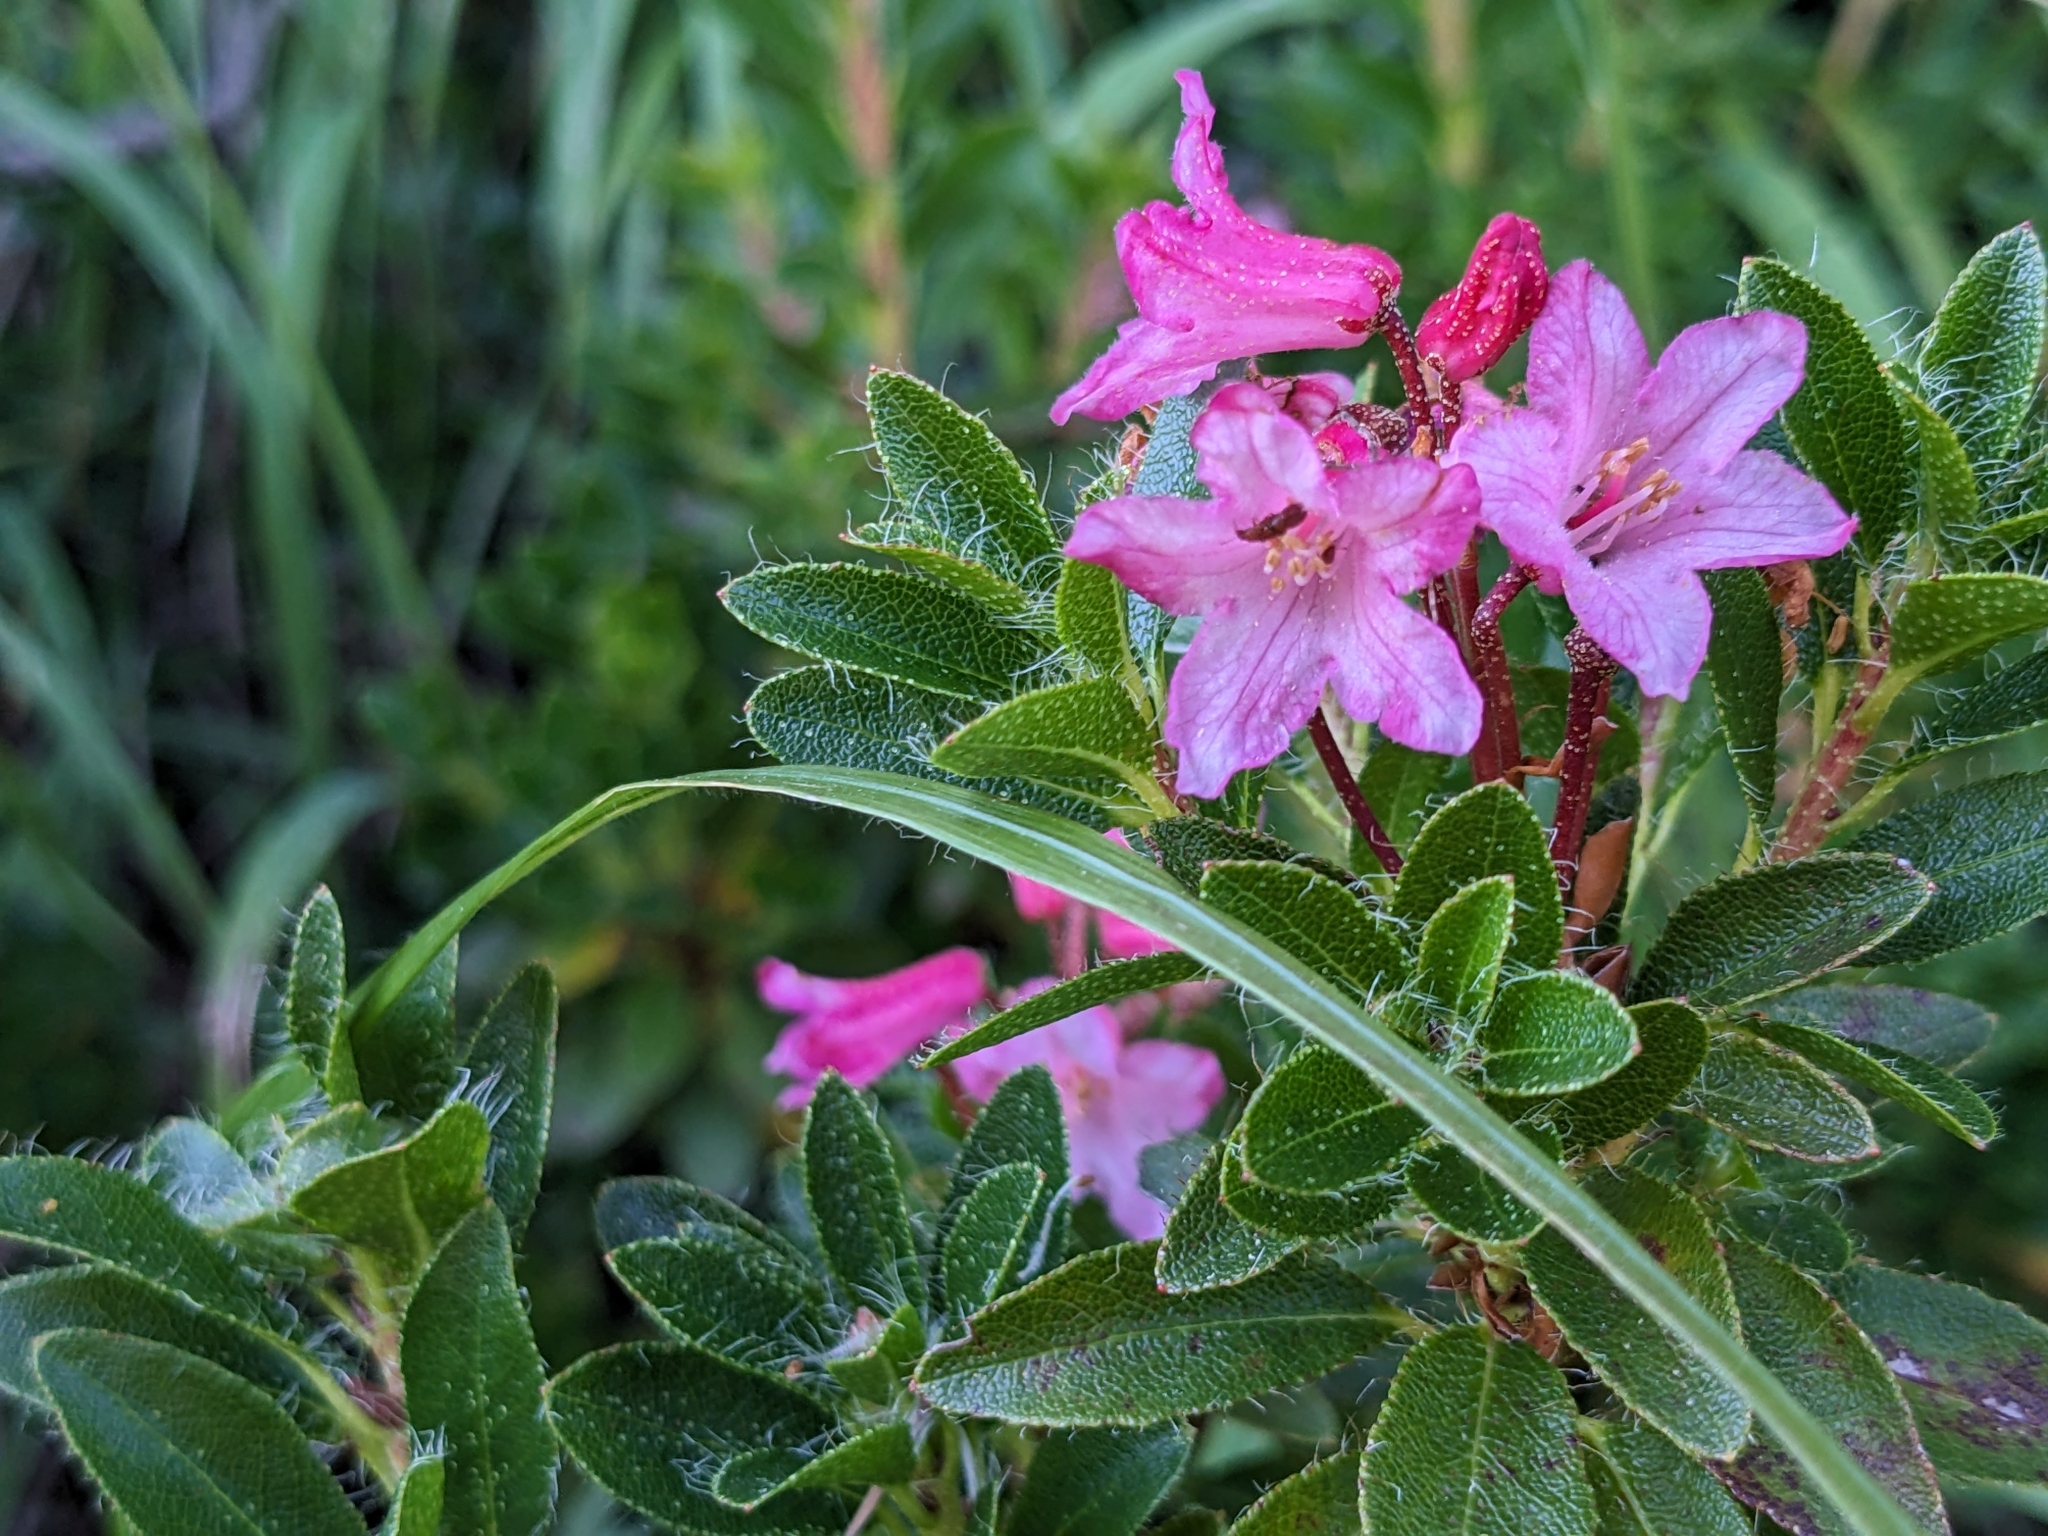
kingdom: Plantae
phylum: Tracheophyta
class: Magnoliopsida
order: Ericales
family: Ericaceae
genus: Rhododendron
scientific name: Rhododendron hirsutum
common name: Hairy alpenrose
